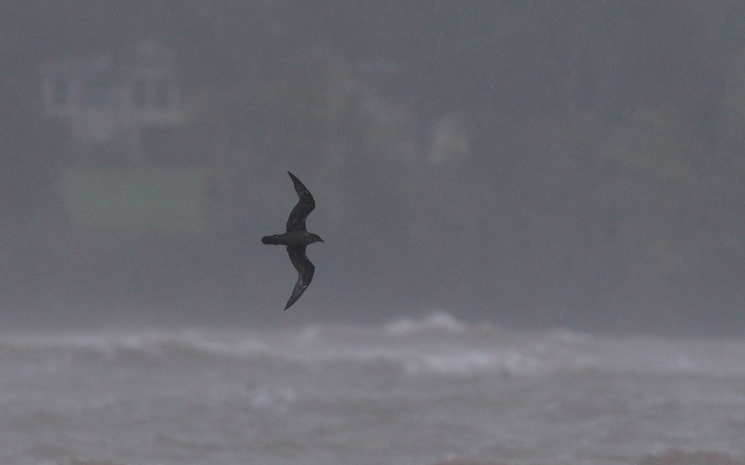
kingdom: Animalia
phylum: Chordata
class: Aves
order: Procellariiformes
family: Procellariidae
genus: Pterodroma
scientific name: Pterodroma arminjoniana
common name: Trindade petrel
